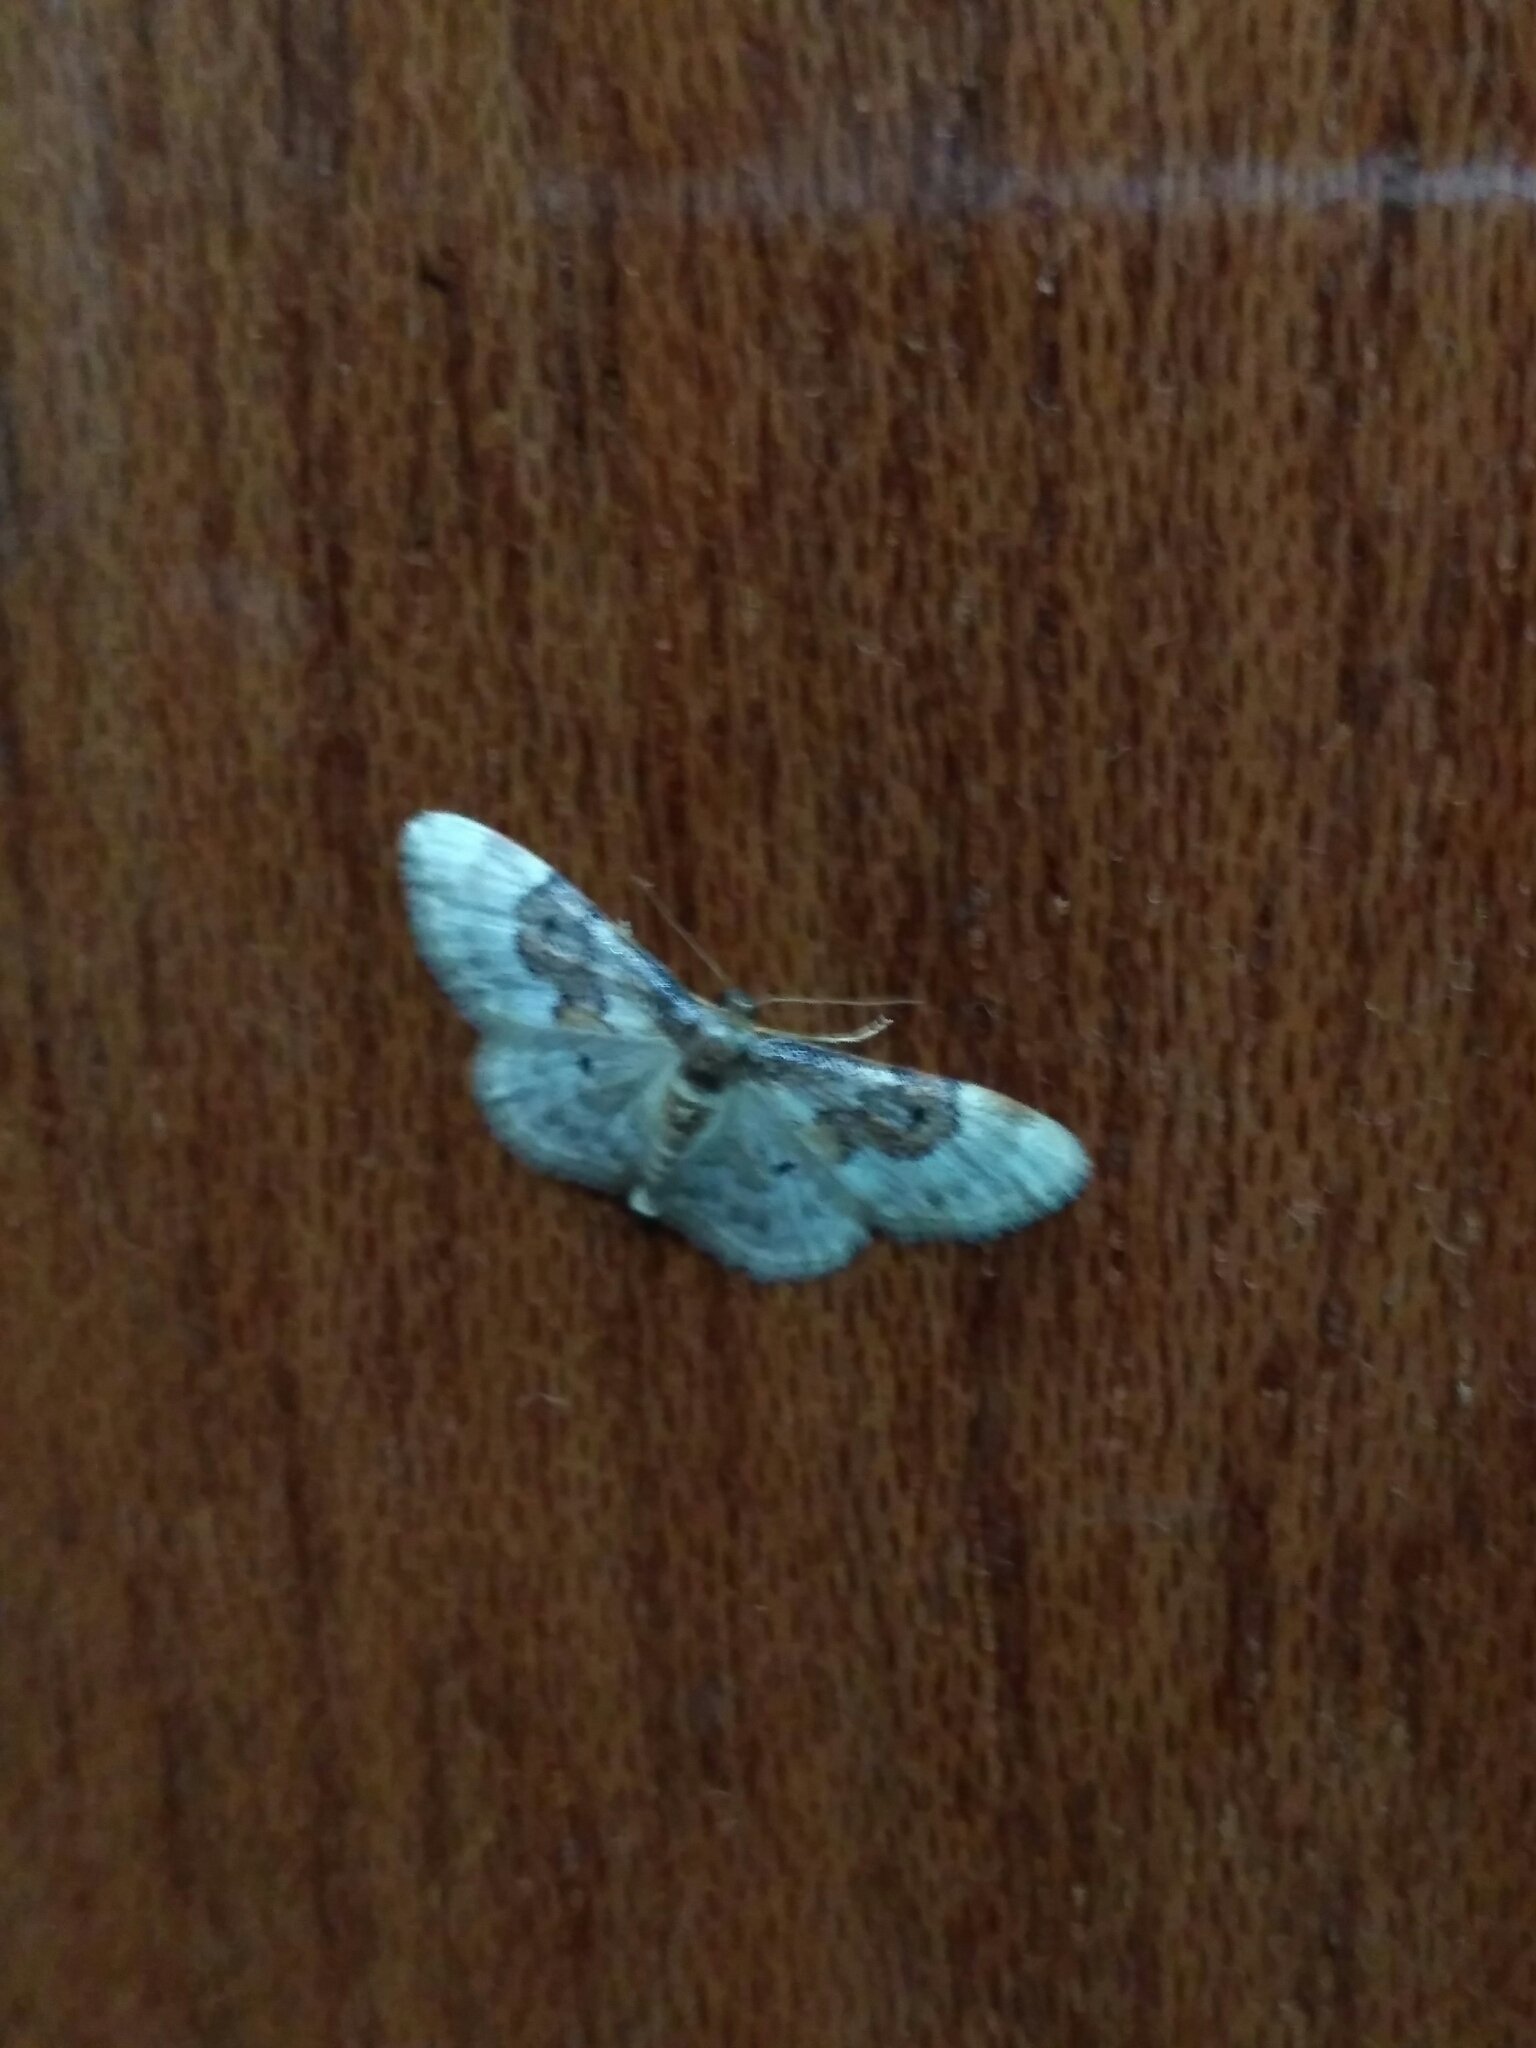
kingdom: Animalia
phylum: Arthropoda
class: Insecta
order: Lepidoptera
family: Geometridae
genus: Idaea
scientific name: Idaea rusticata
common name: Least carpet
